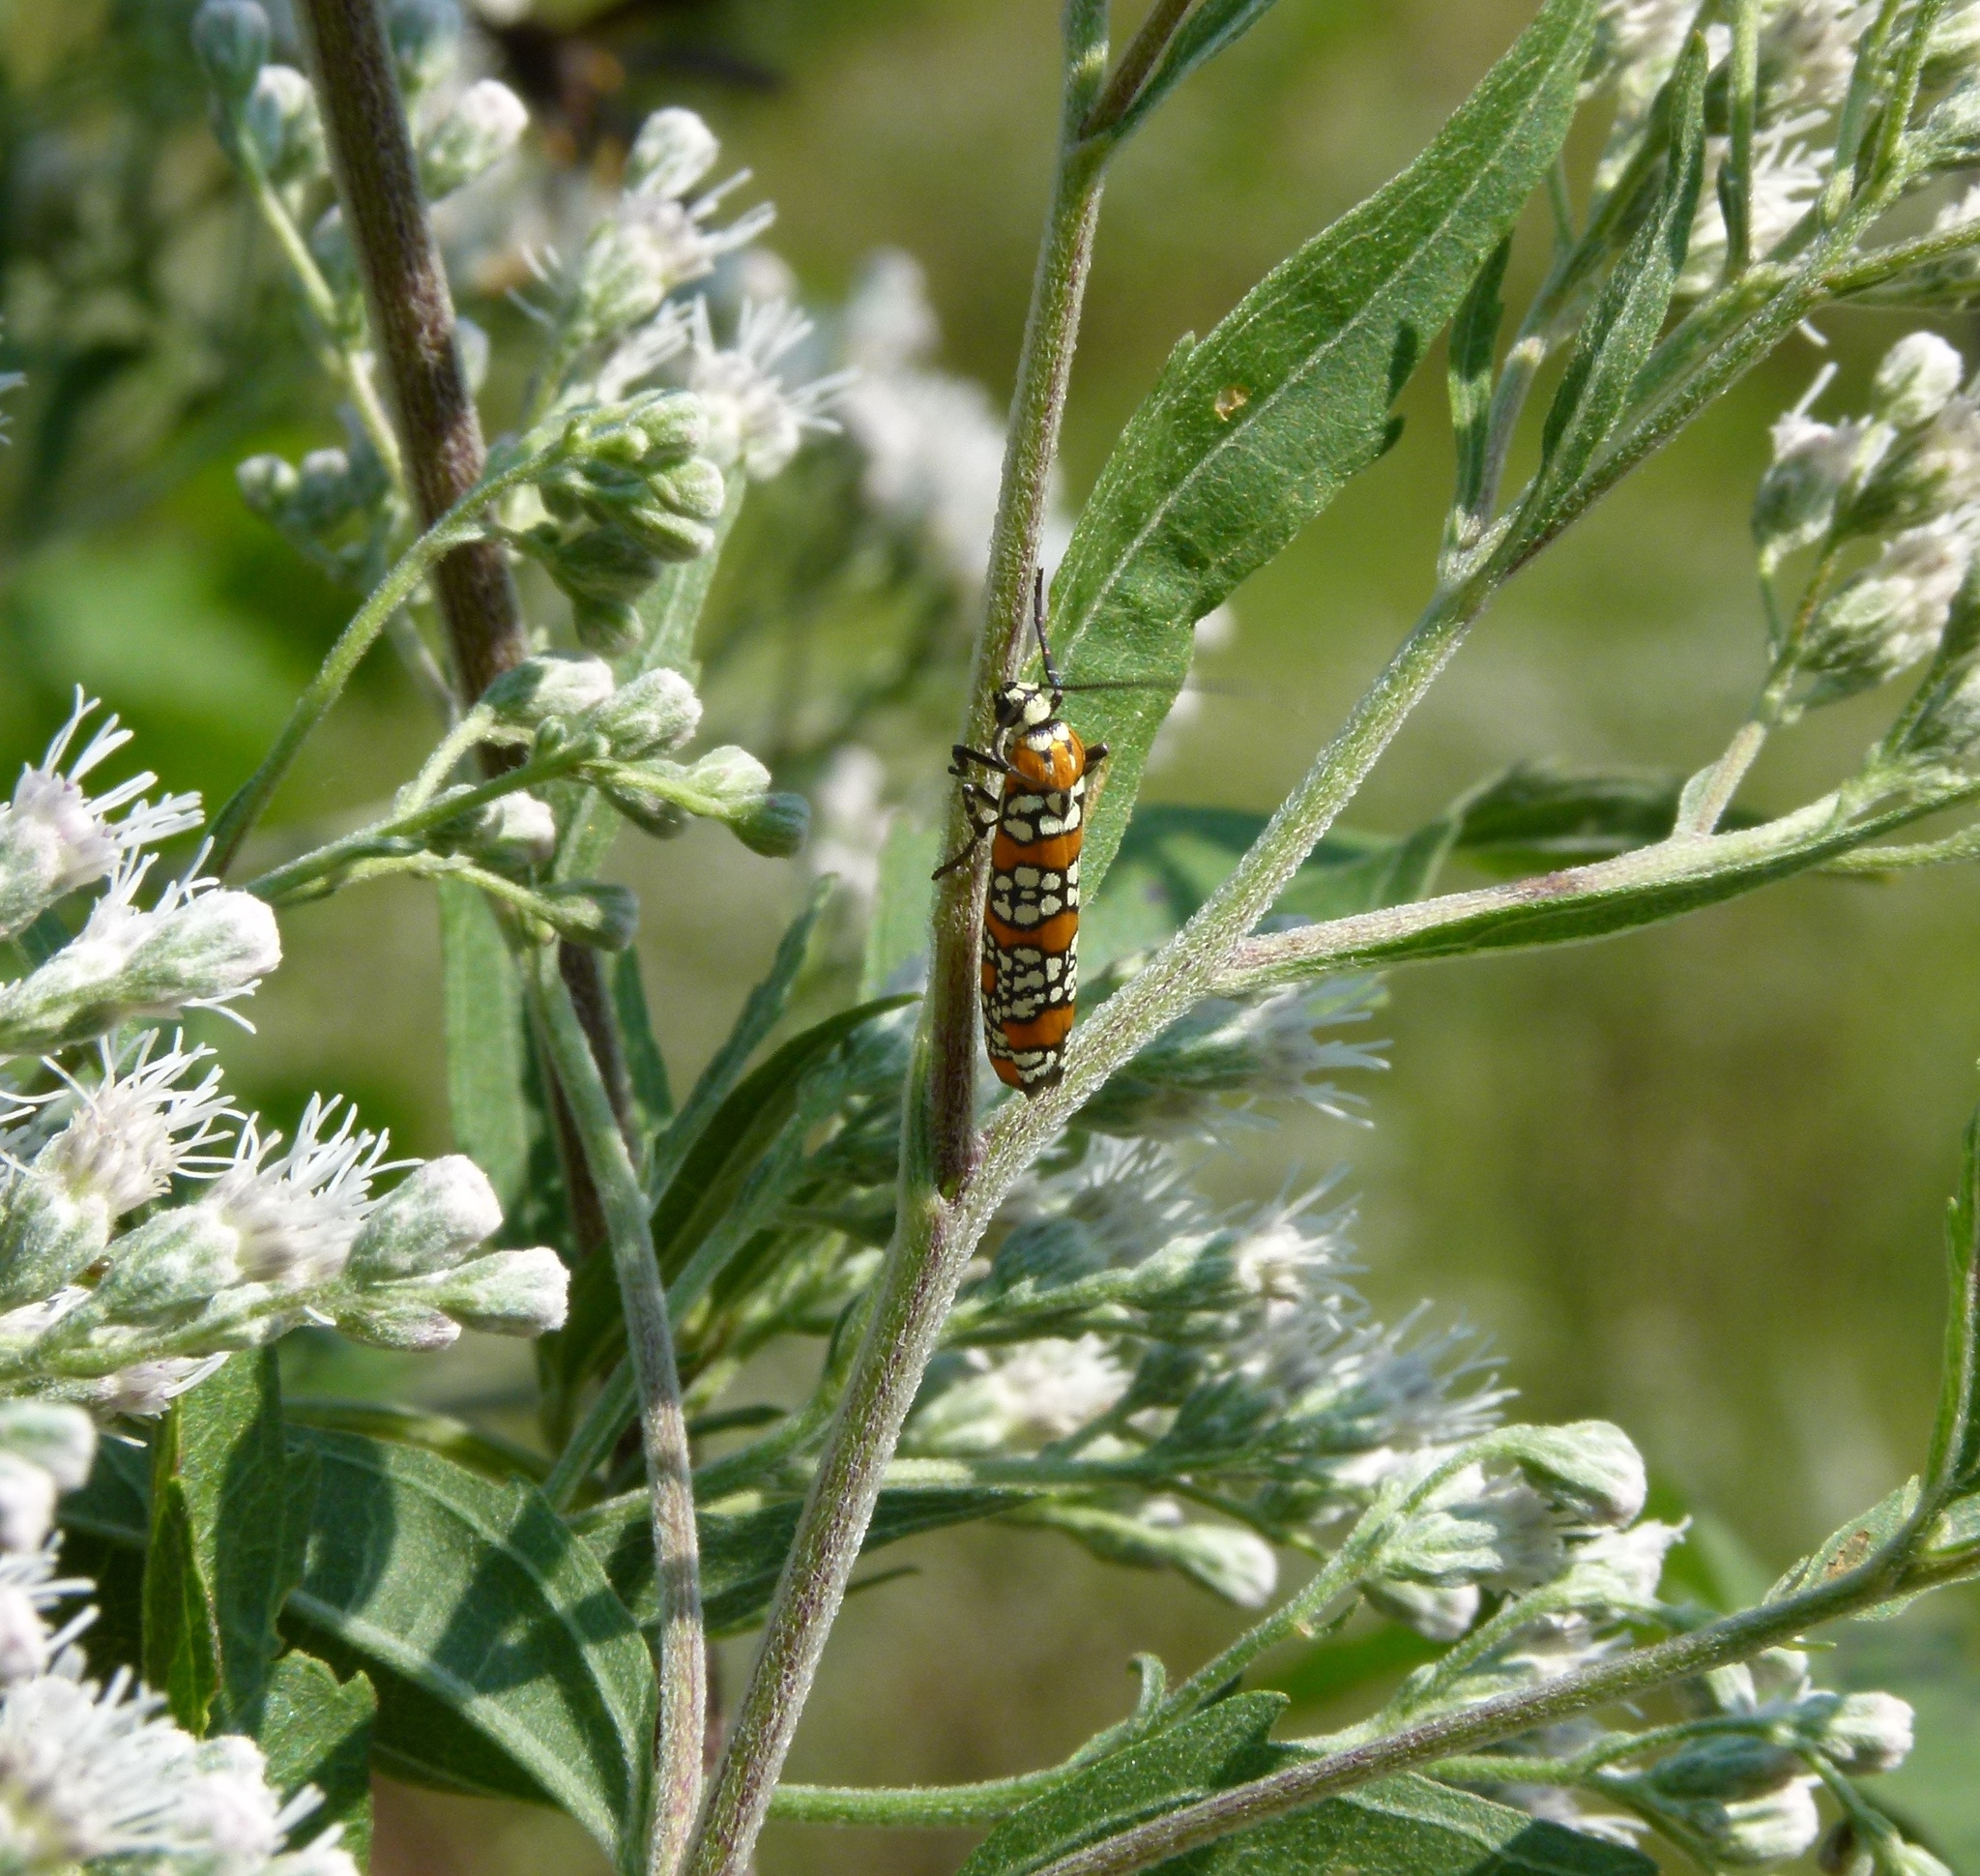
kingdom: Animalia
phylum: Arthropoda
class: Insecta
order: Lepidoptera
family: Attevidae
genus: Atteva
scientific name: Atteva punctella
